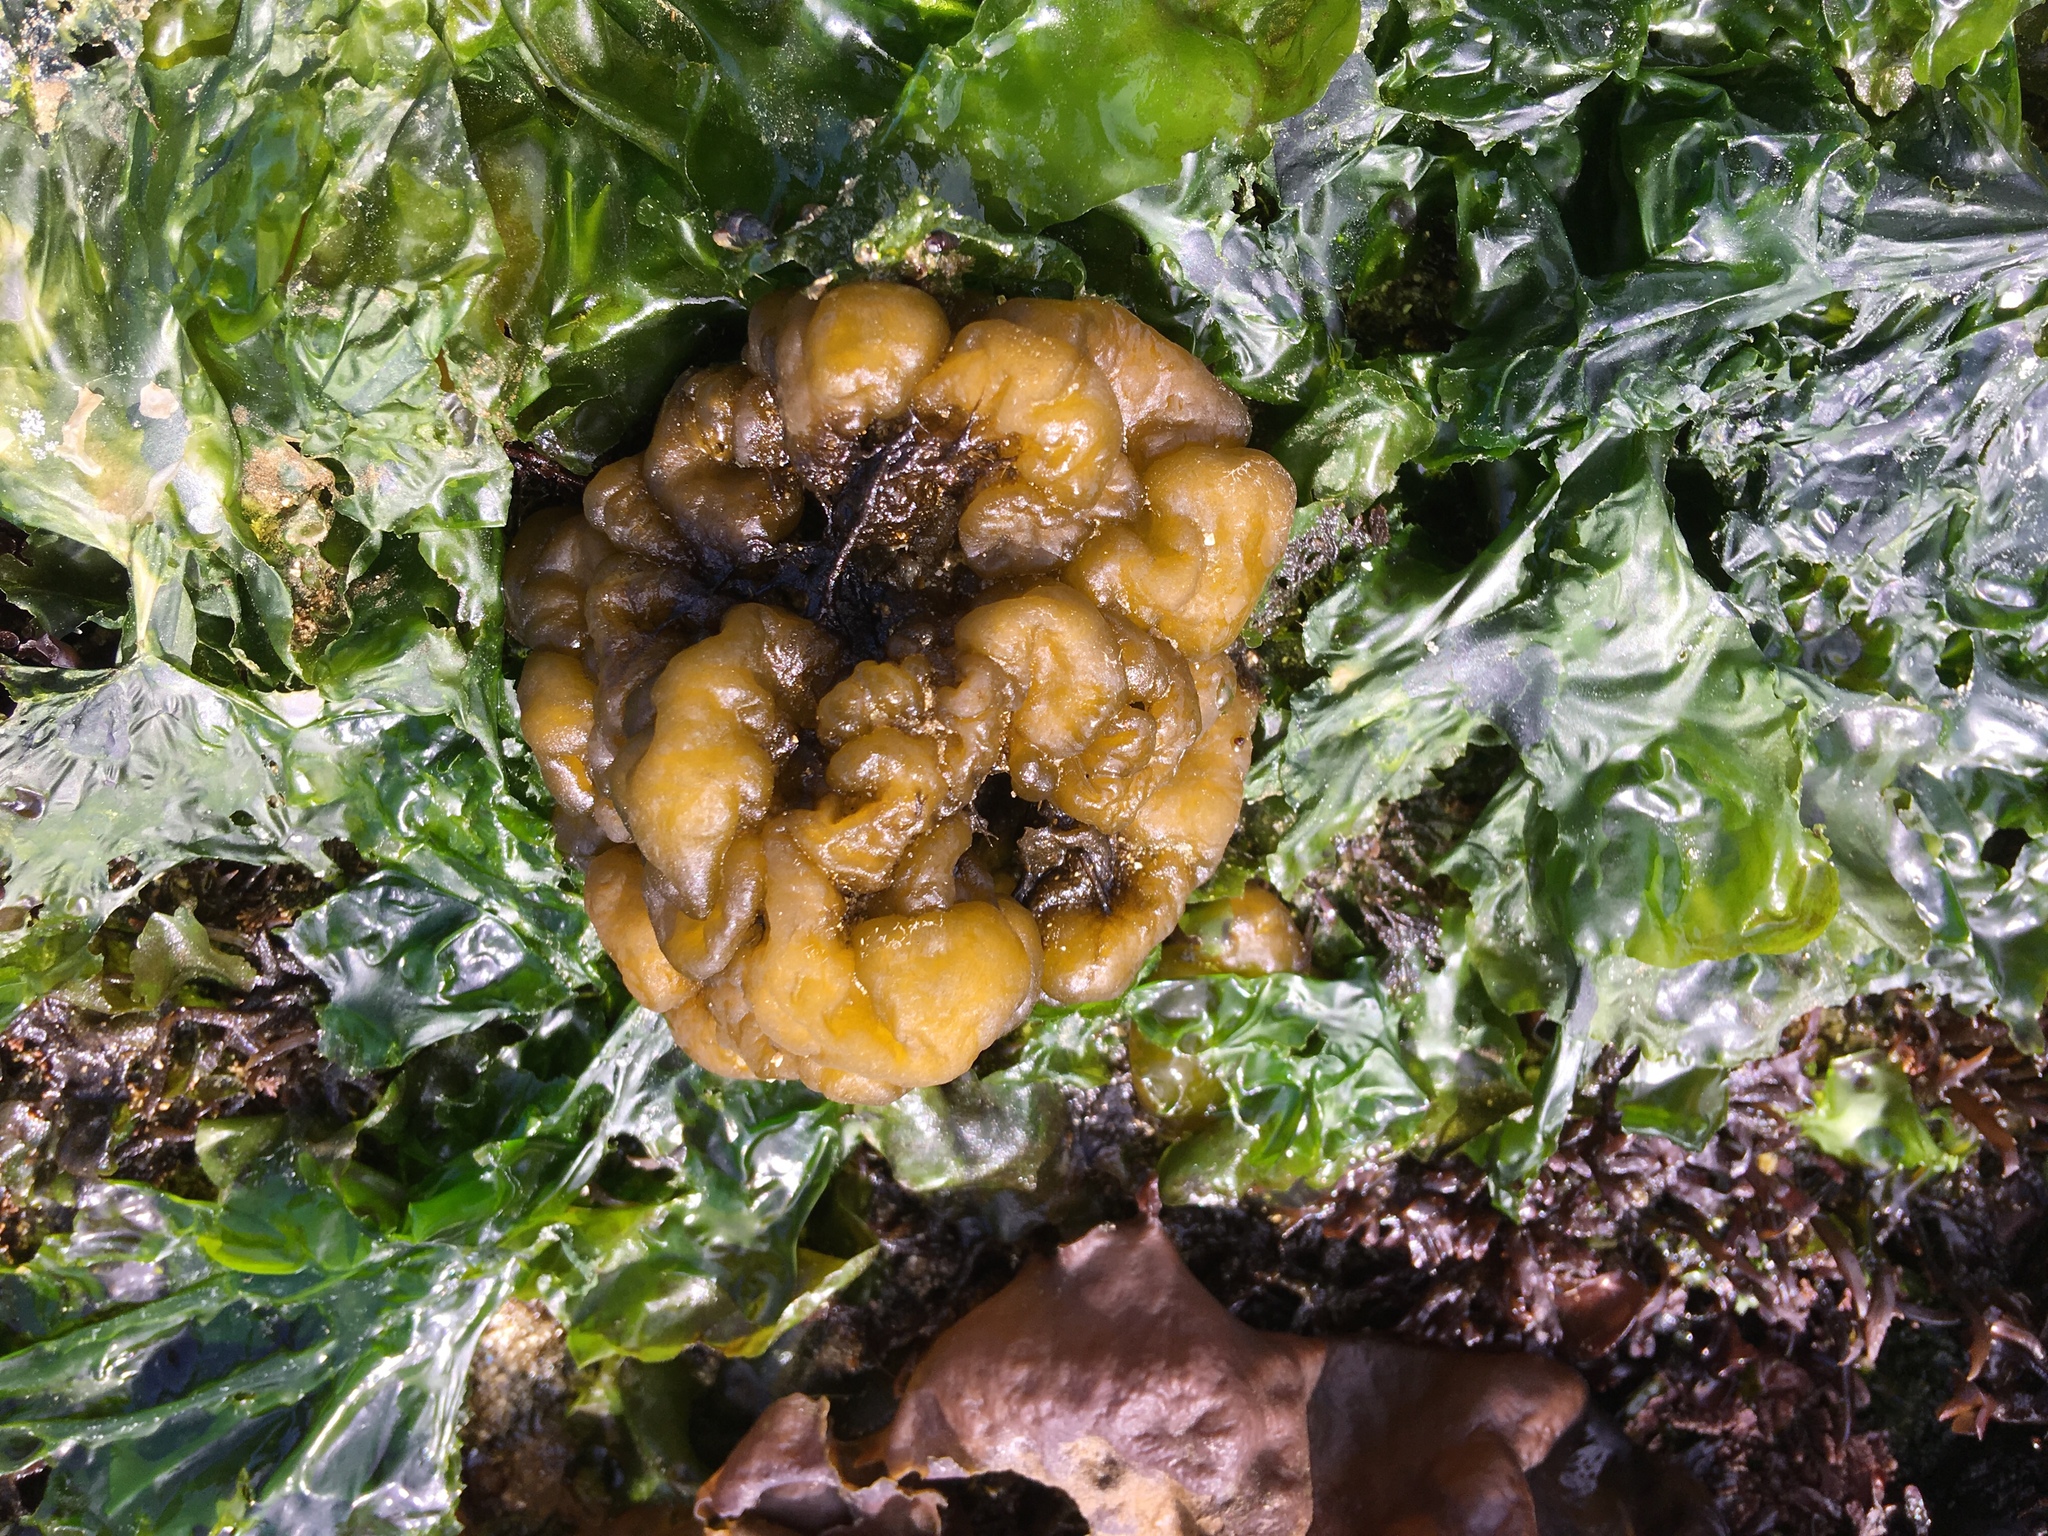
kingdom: Chromista
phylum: Ochrophyta
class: Phaeophyceae
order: Ectocarpales
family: Chordariaceae
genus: Leathesia
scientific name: Leathesia marina
